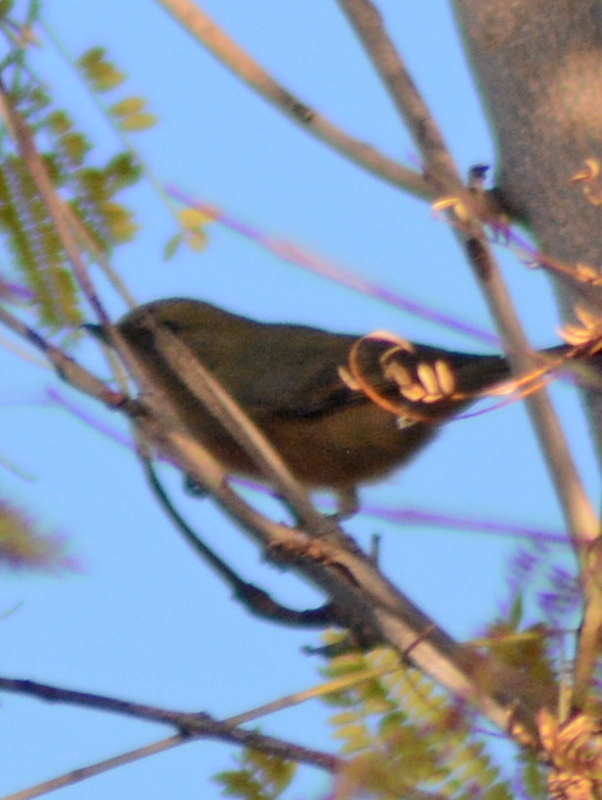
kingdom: Animalia
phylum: Chordata
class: Aves
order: Passeriformes
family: Thraupidae
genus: Diglossa
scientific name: Diglossa baritula
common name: Cinnamon-bellied flowerpiercer
